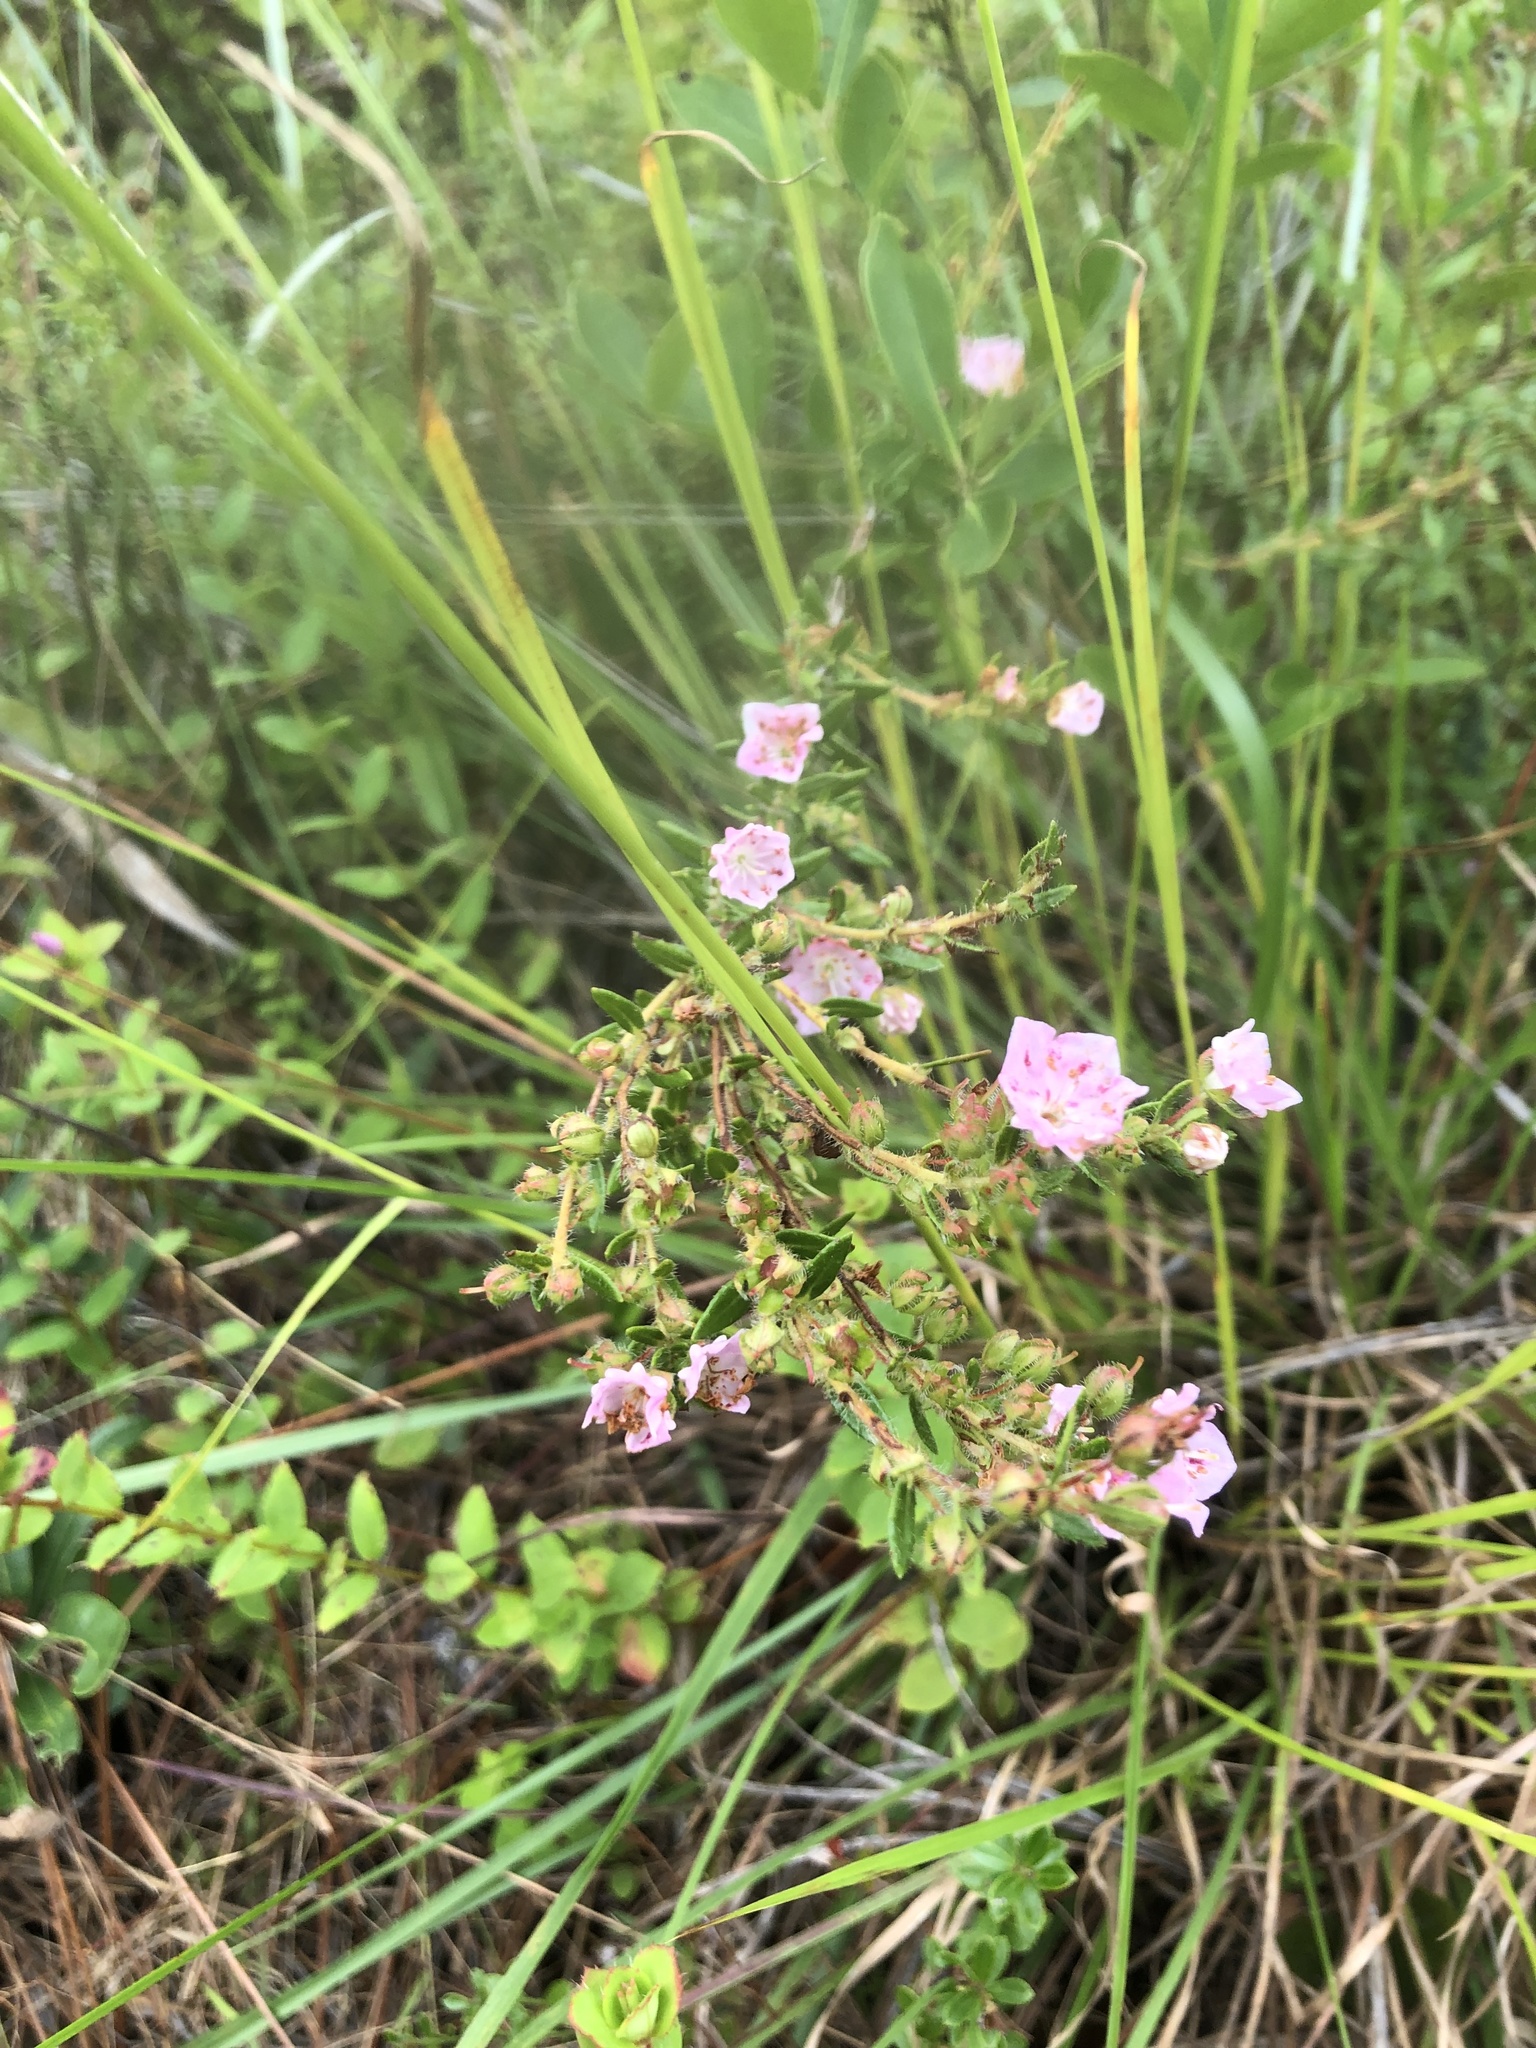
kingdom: Plantae
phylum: Tracheophyta
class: Magnoliopsida
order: Ericales
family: Ericaceae
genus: Kalmia
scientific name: Kalmia hirsuta
